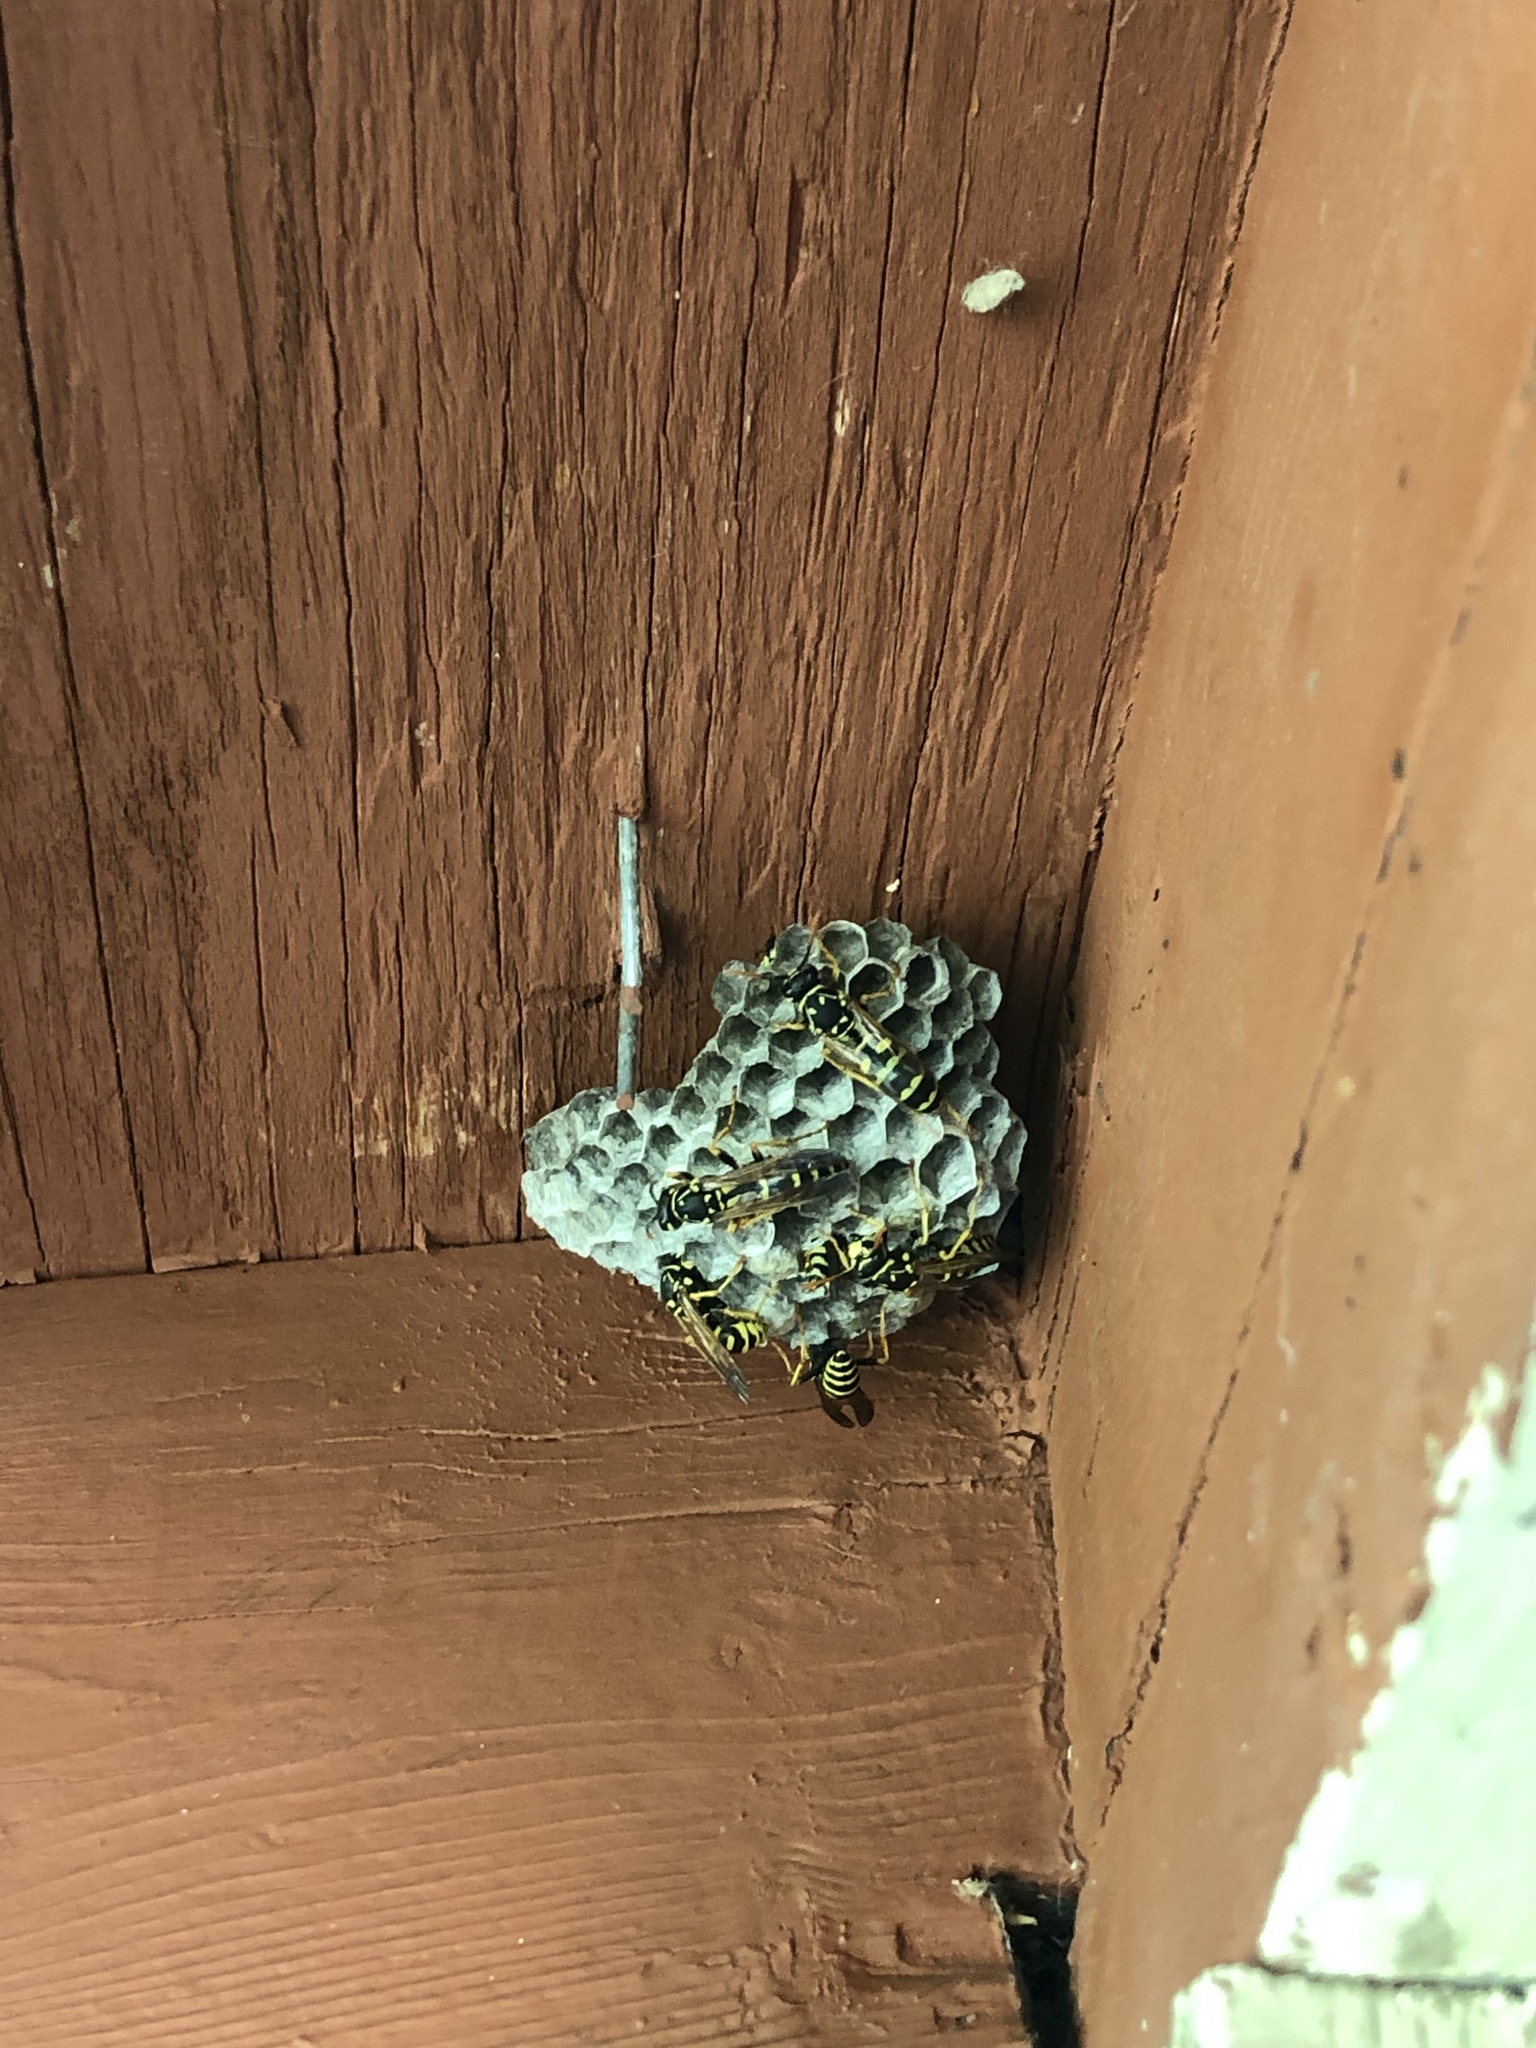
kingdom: Animalia
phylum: Arthropoda
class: Insecta
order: Hymenoptera
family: Eumenidae
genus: Polistes
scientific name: Polistes dominula
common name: Paper wasp
